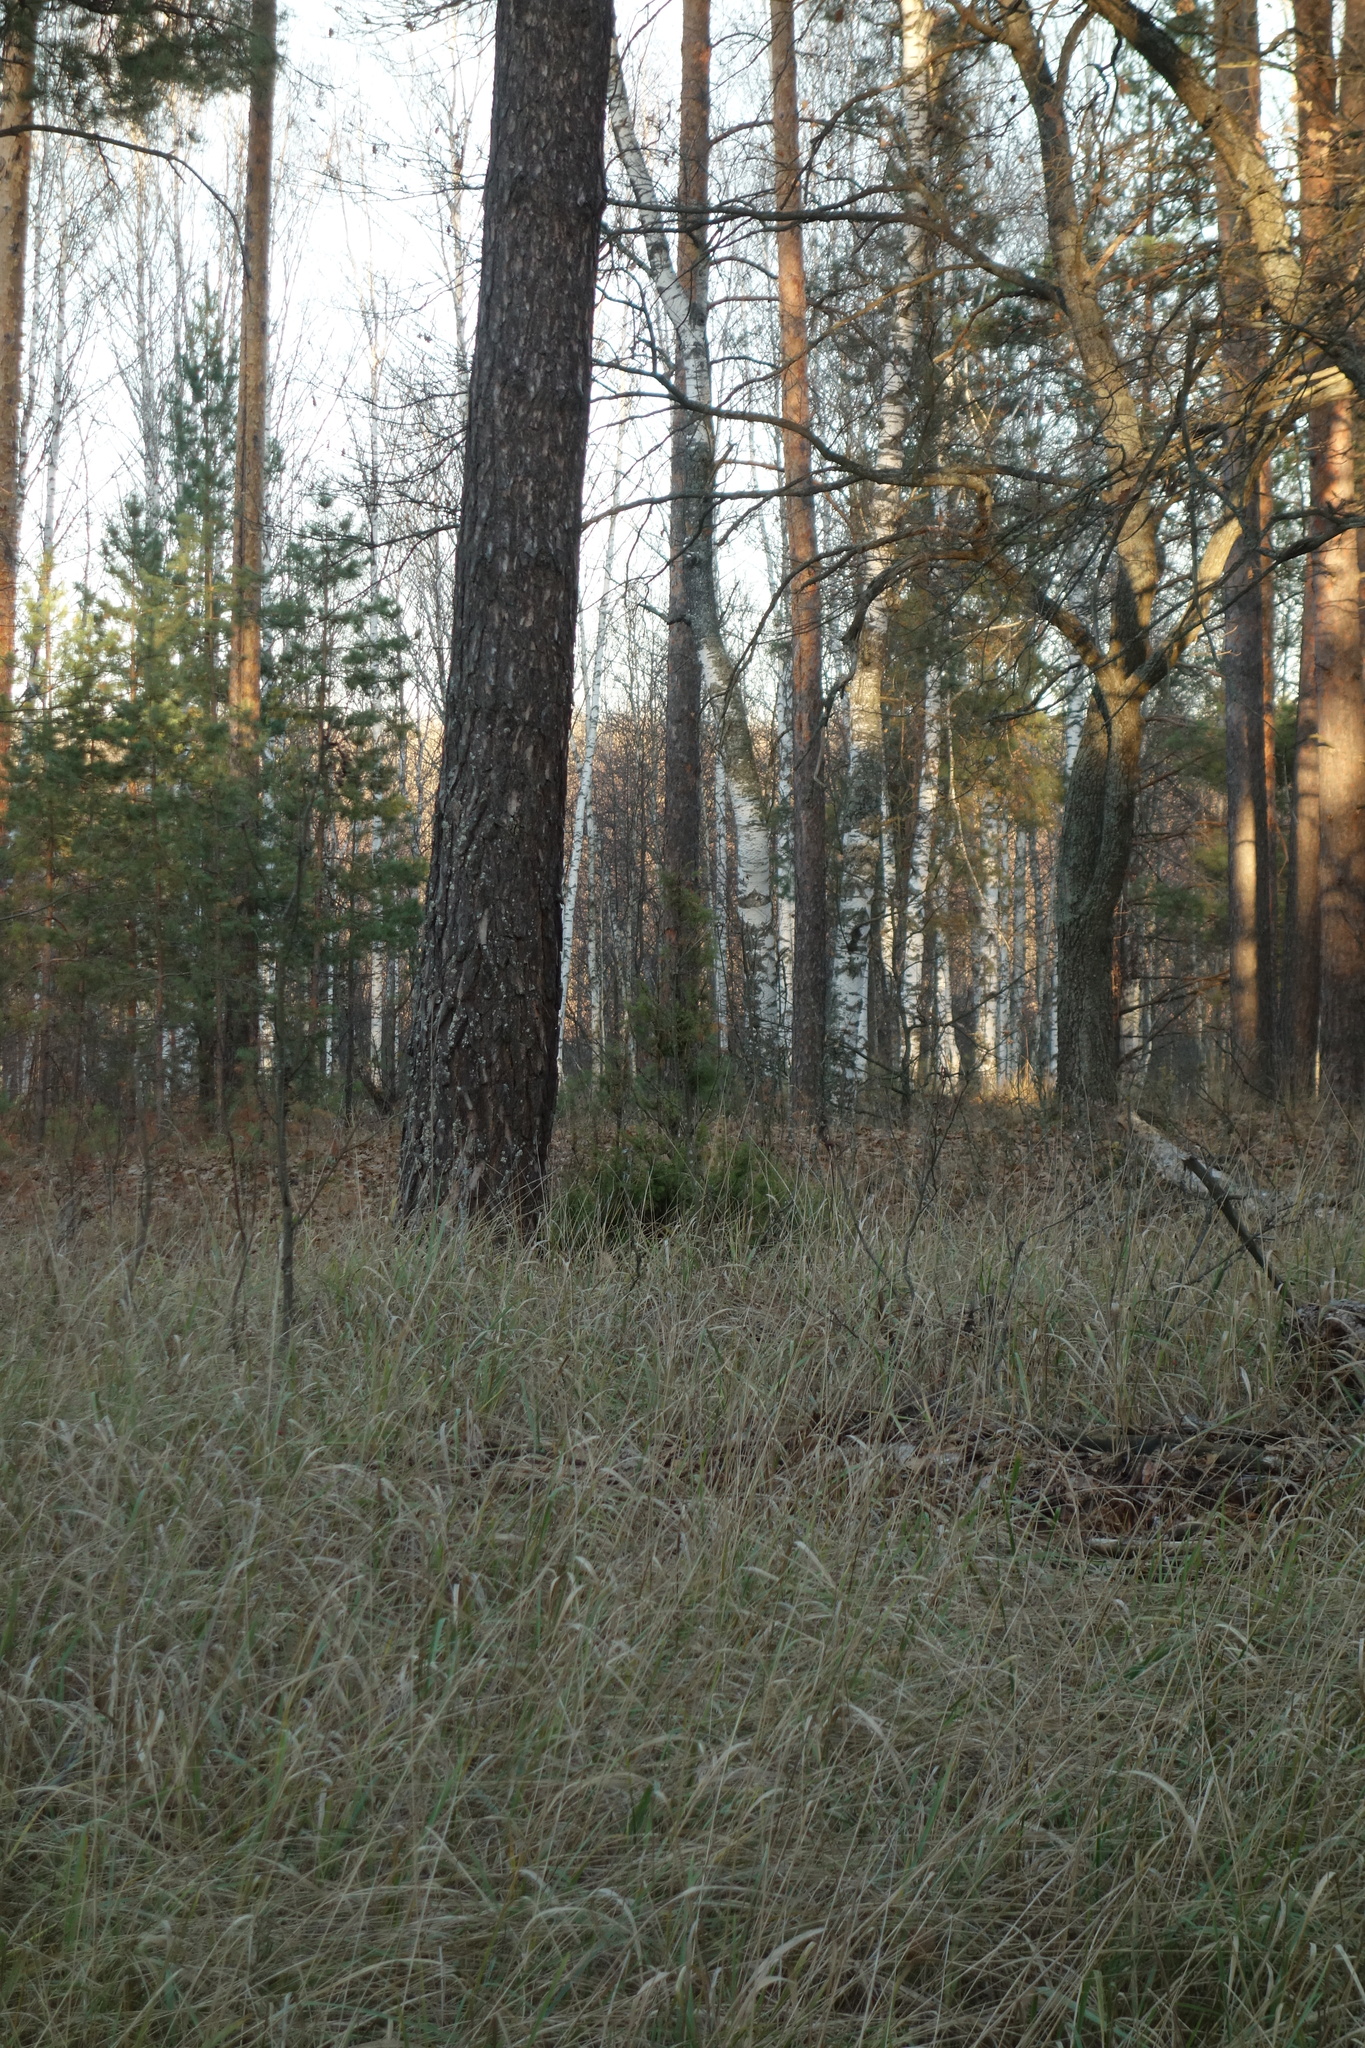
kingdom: Plantae
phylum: Tracheophyta
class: Pinopsida
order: Pinales
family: Cupressaceae
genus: Juniperus
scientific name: Juniperus communis
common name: Common juniper
